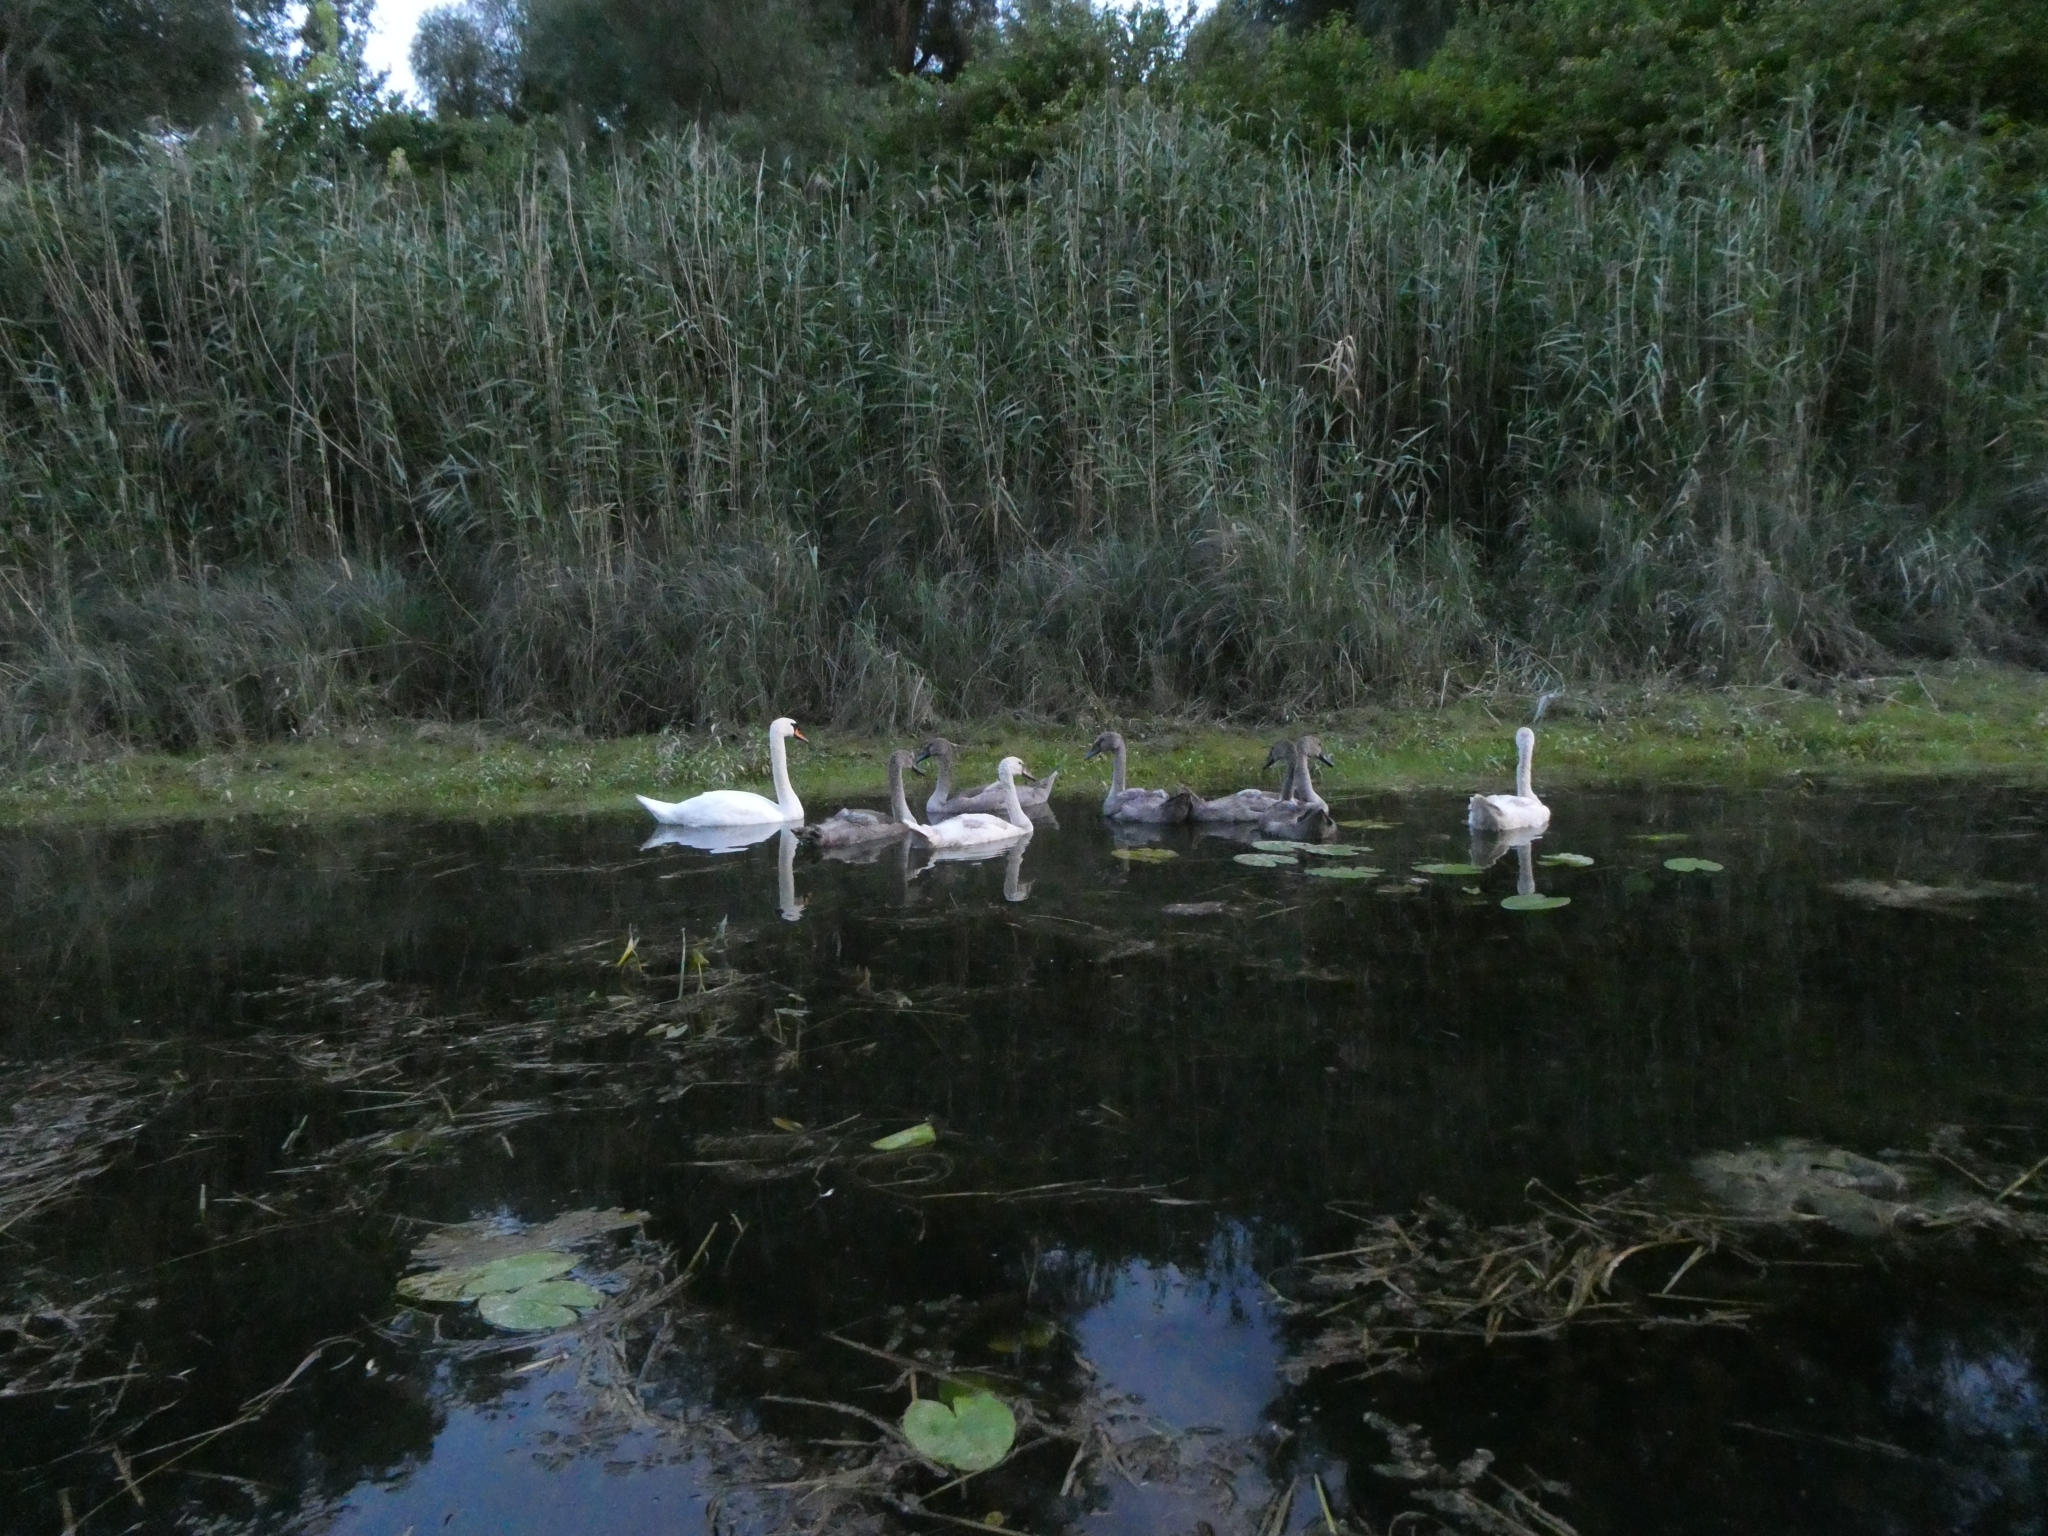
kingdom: Animalia
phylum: Chordata
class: Aves
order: Anseriformes
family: Anatidae
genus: Cygnus
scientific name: Cygnus olor
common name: Mute swan
